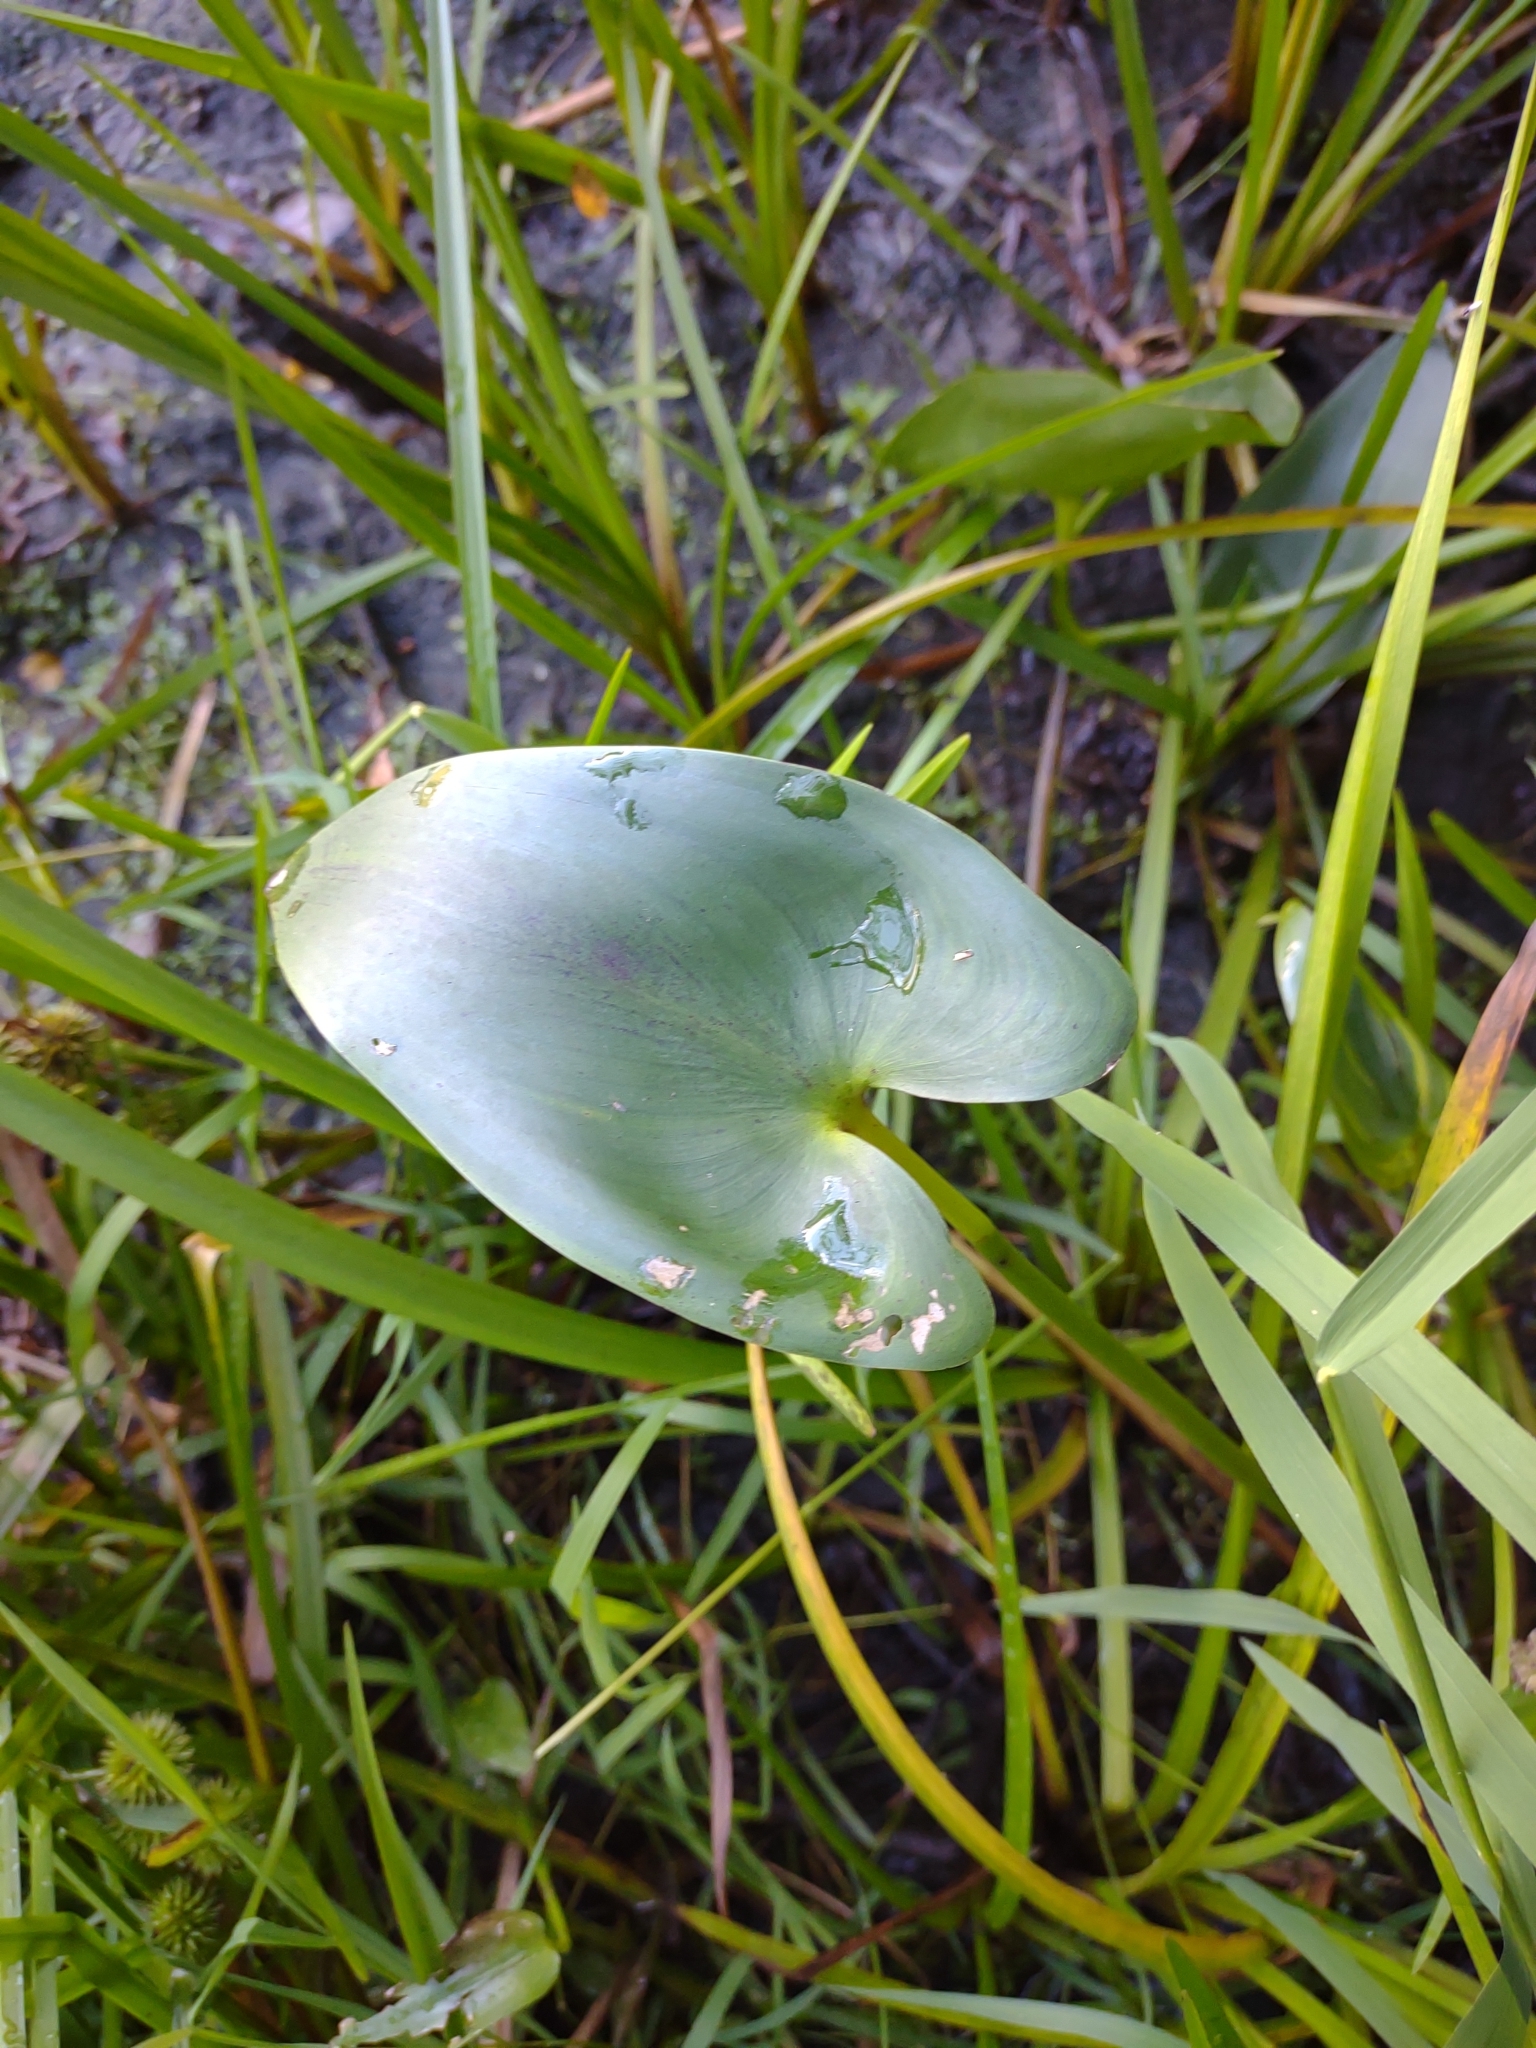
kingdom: Plantae
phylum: Tracheophyta
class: Liliopsida
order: Commelinales
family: Pontederiaceae
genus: Pontederia
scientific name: Pontederia cordata
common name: Pickerelweed
